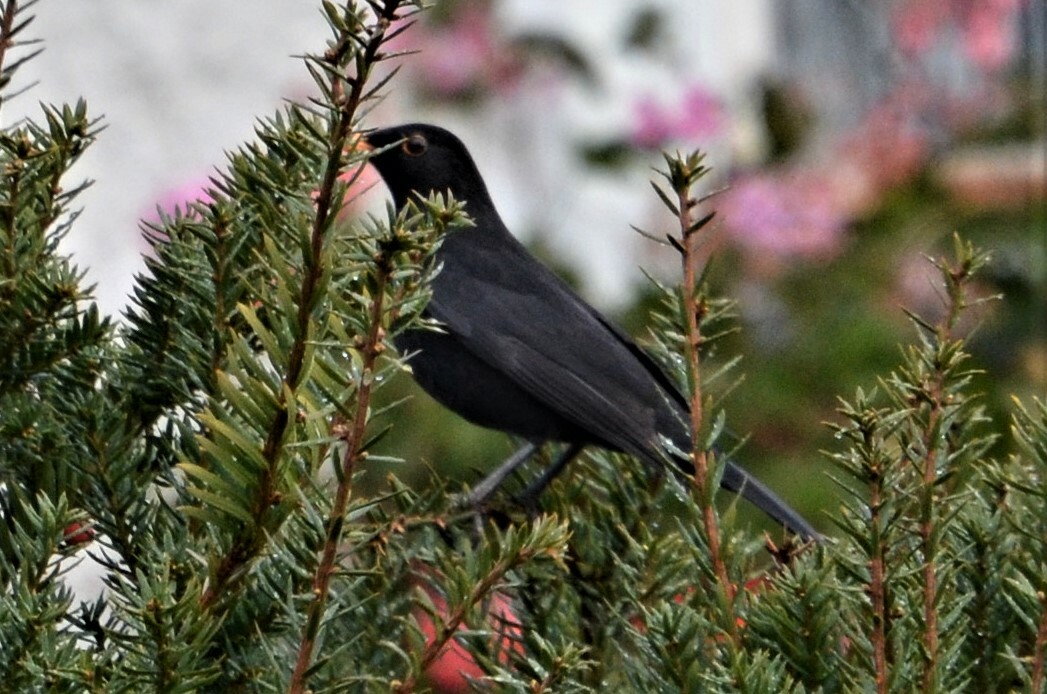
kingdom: Animalia
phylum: Chordata
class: Aves
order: Passeriformes
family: Turdidae
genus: Turdus
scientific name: Turdus merula
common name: Common blackbird
